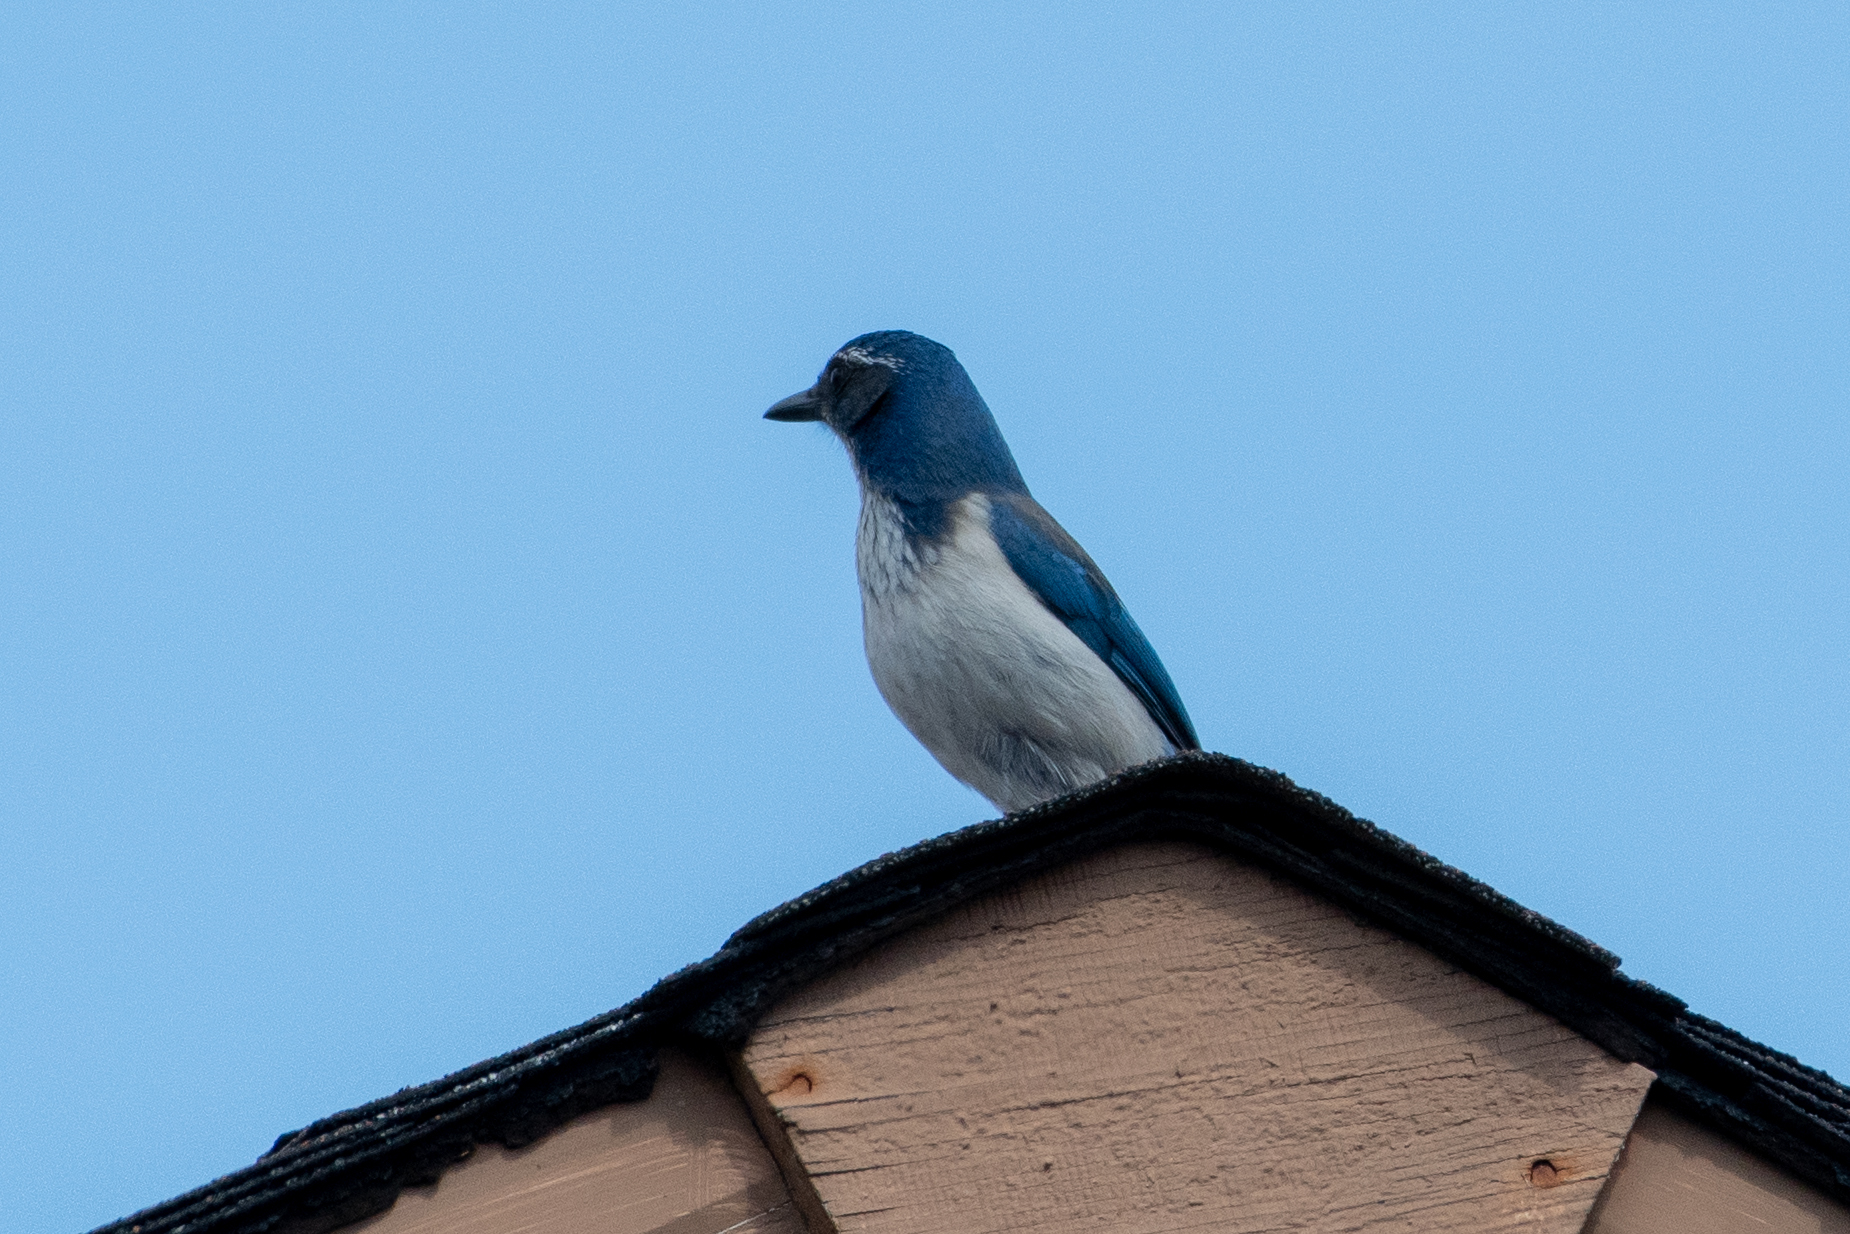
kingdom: Animalia
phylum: Chordata
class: Aves
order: Passeriformes
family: Corvidae
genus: Aphelocoma
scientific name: Aphelocoma californica
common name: California scrub-jay
